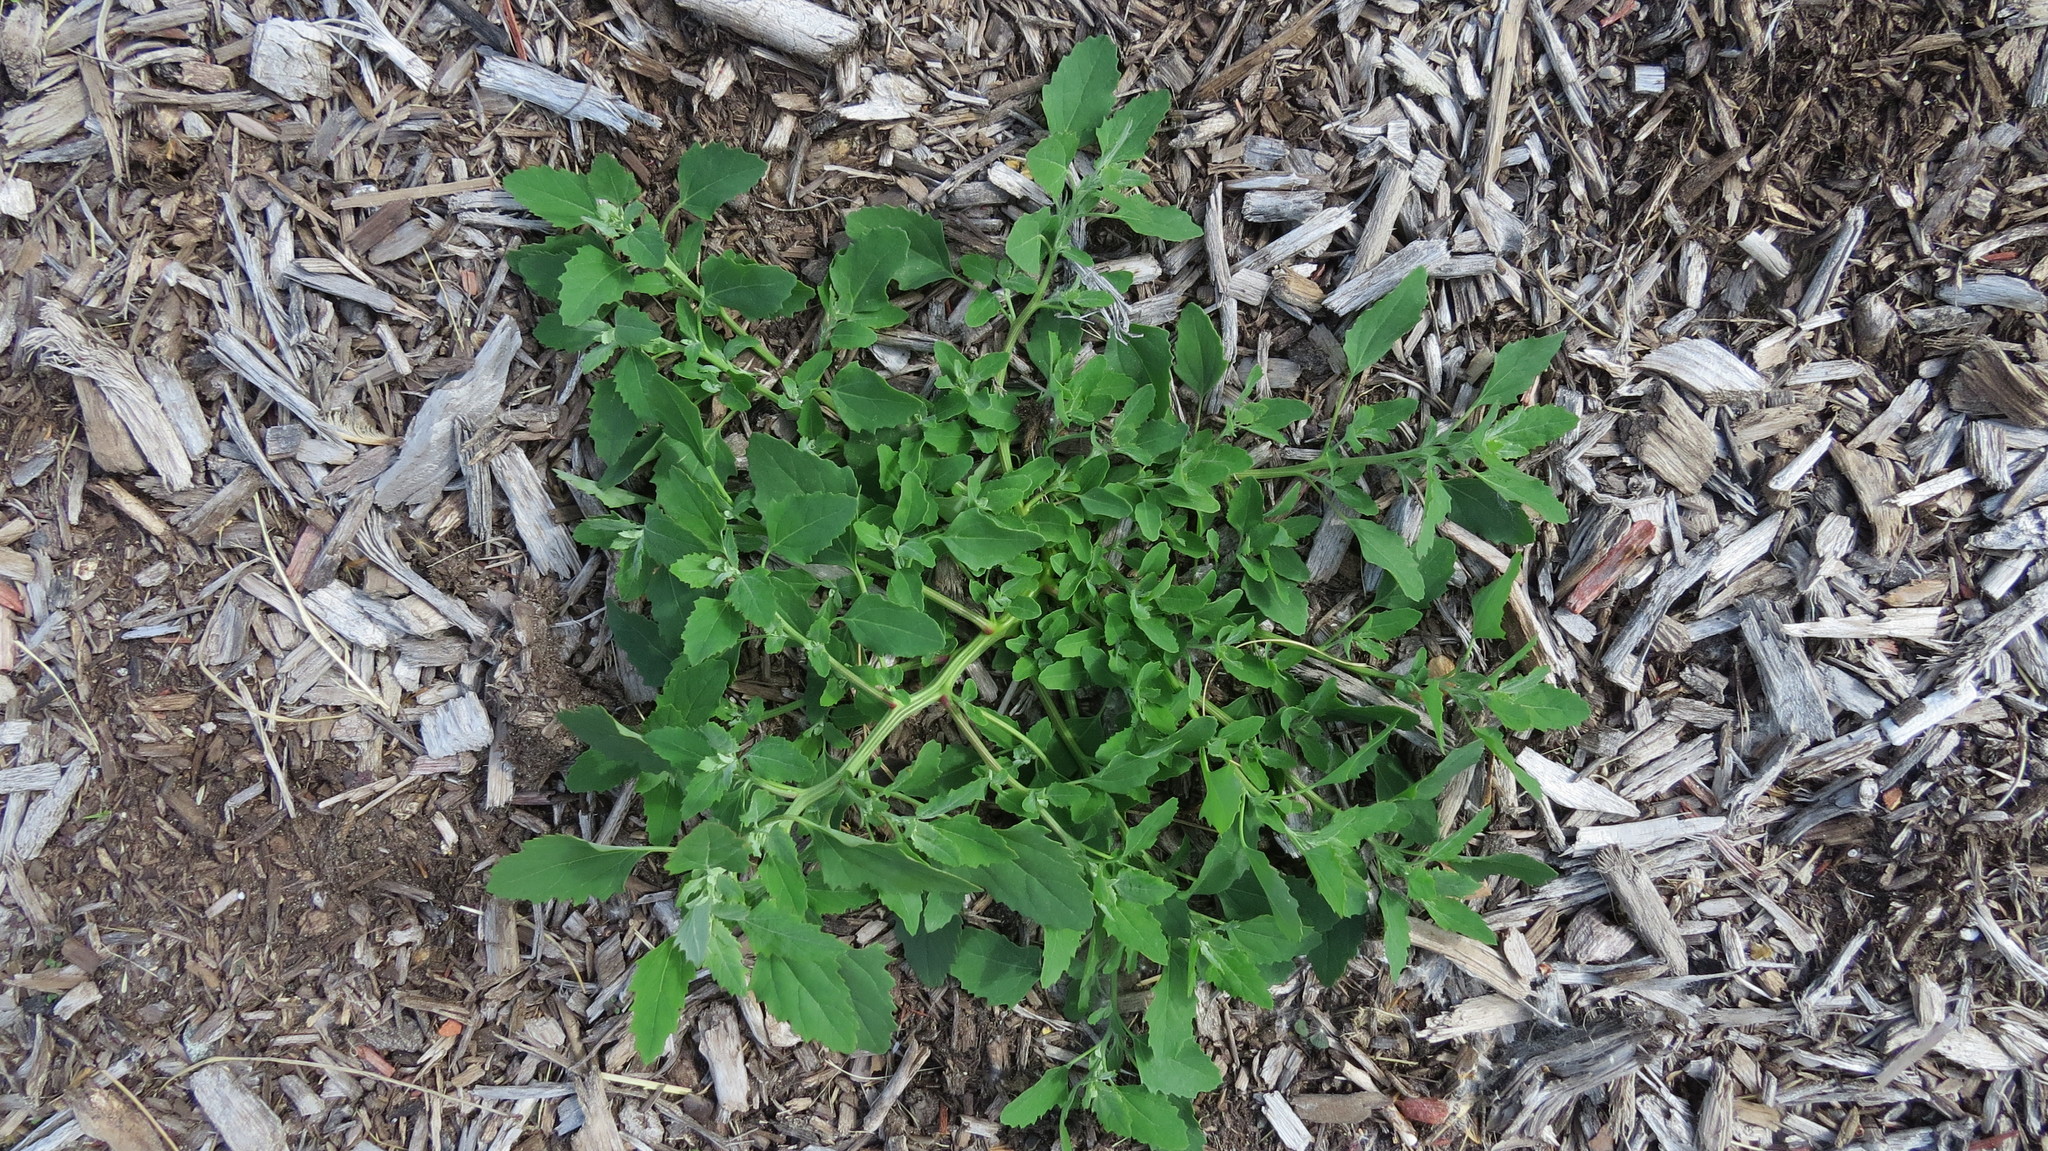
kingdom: Plantae
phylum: Tracheophyta
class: Magnoliopsida
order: Caryophyllales
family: Amaranthaceae
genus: Chenopodium
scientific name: Chenopodium album
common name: Fat-hen
